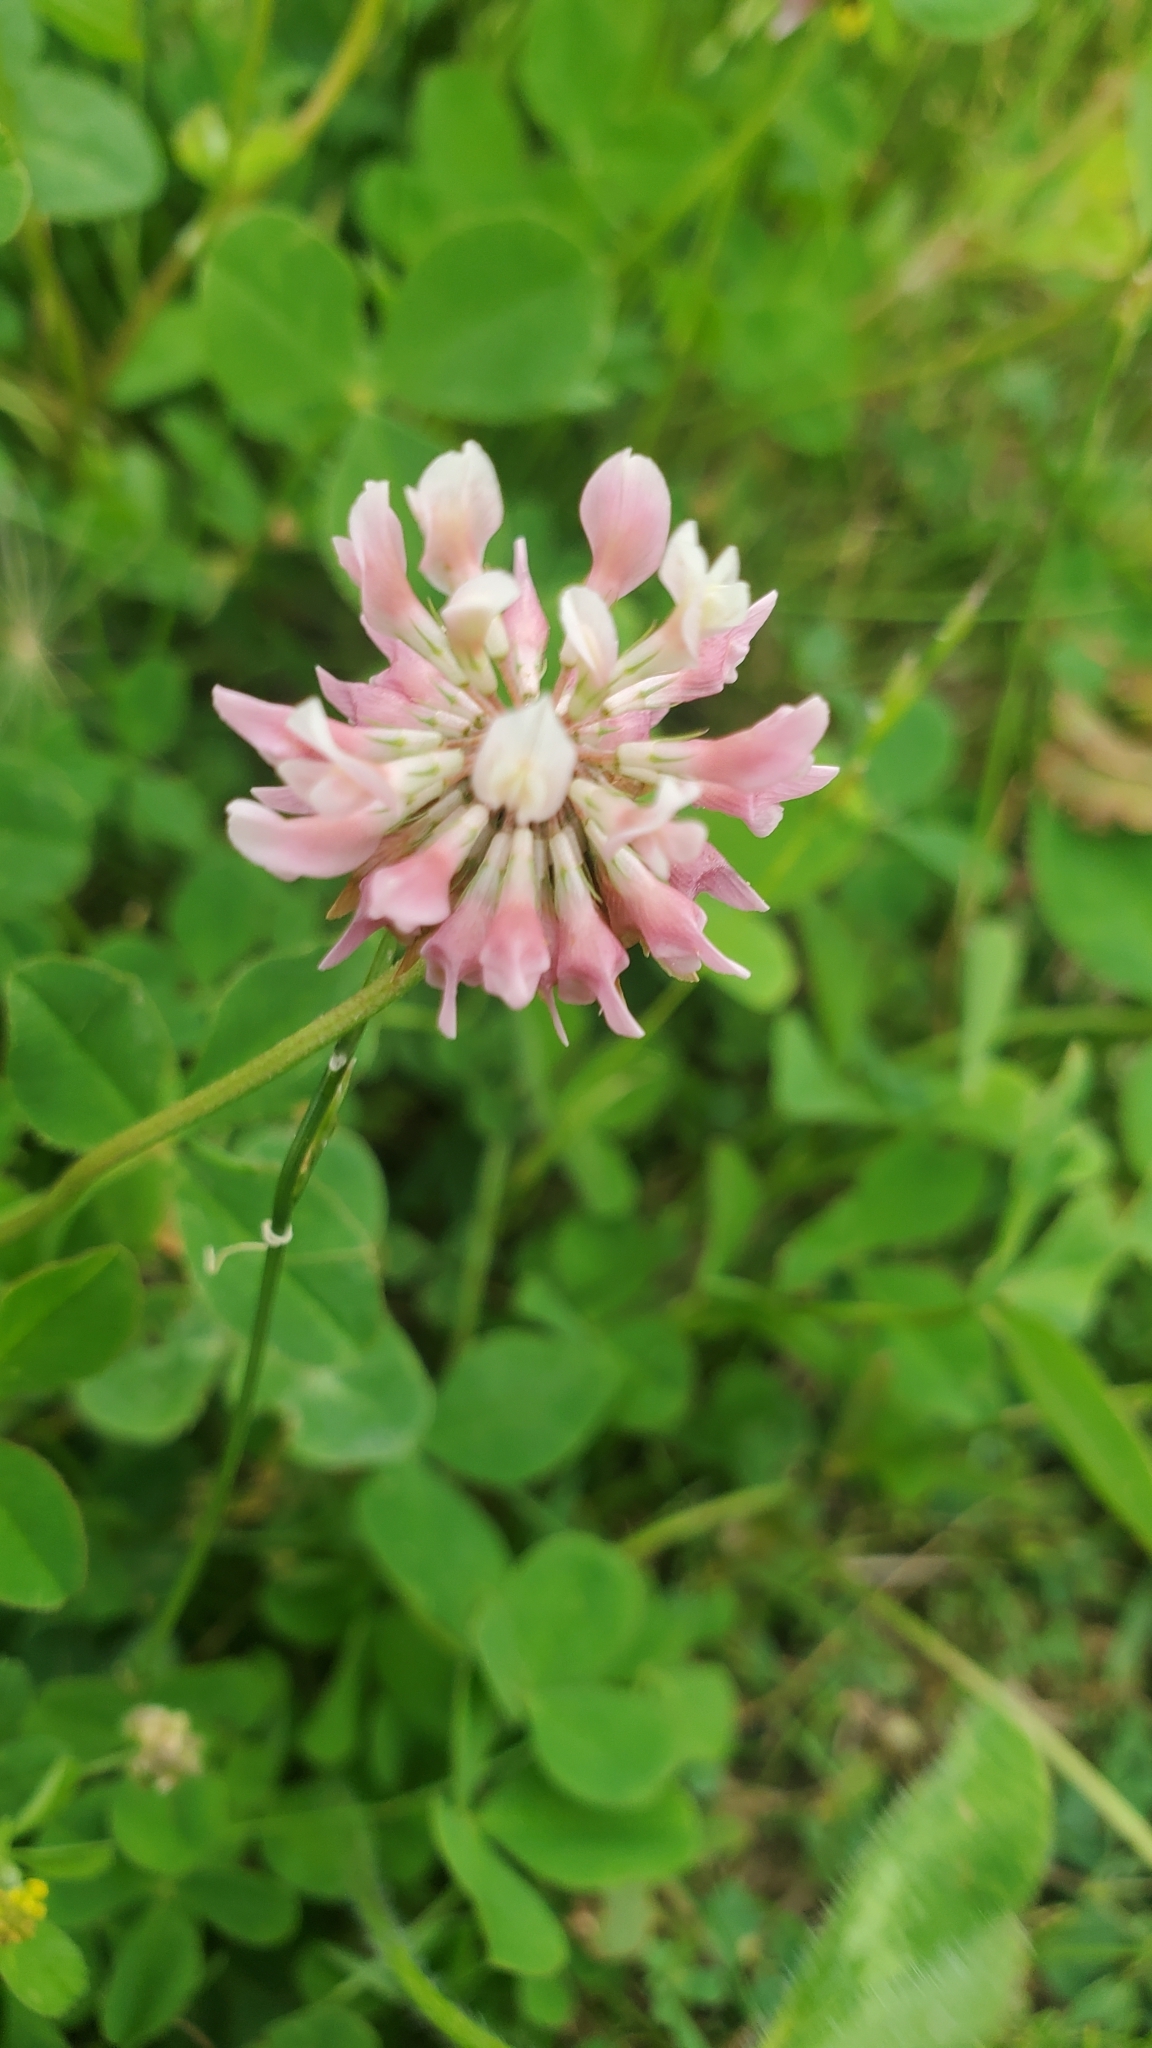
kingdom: Plantae
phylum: Tracheophyta
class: Magnoliopsida
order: Fabales
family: Fabaceae
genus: Trifolium
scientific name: Trifolium hybridum
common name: Alsike clover
